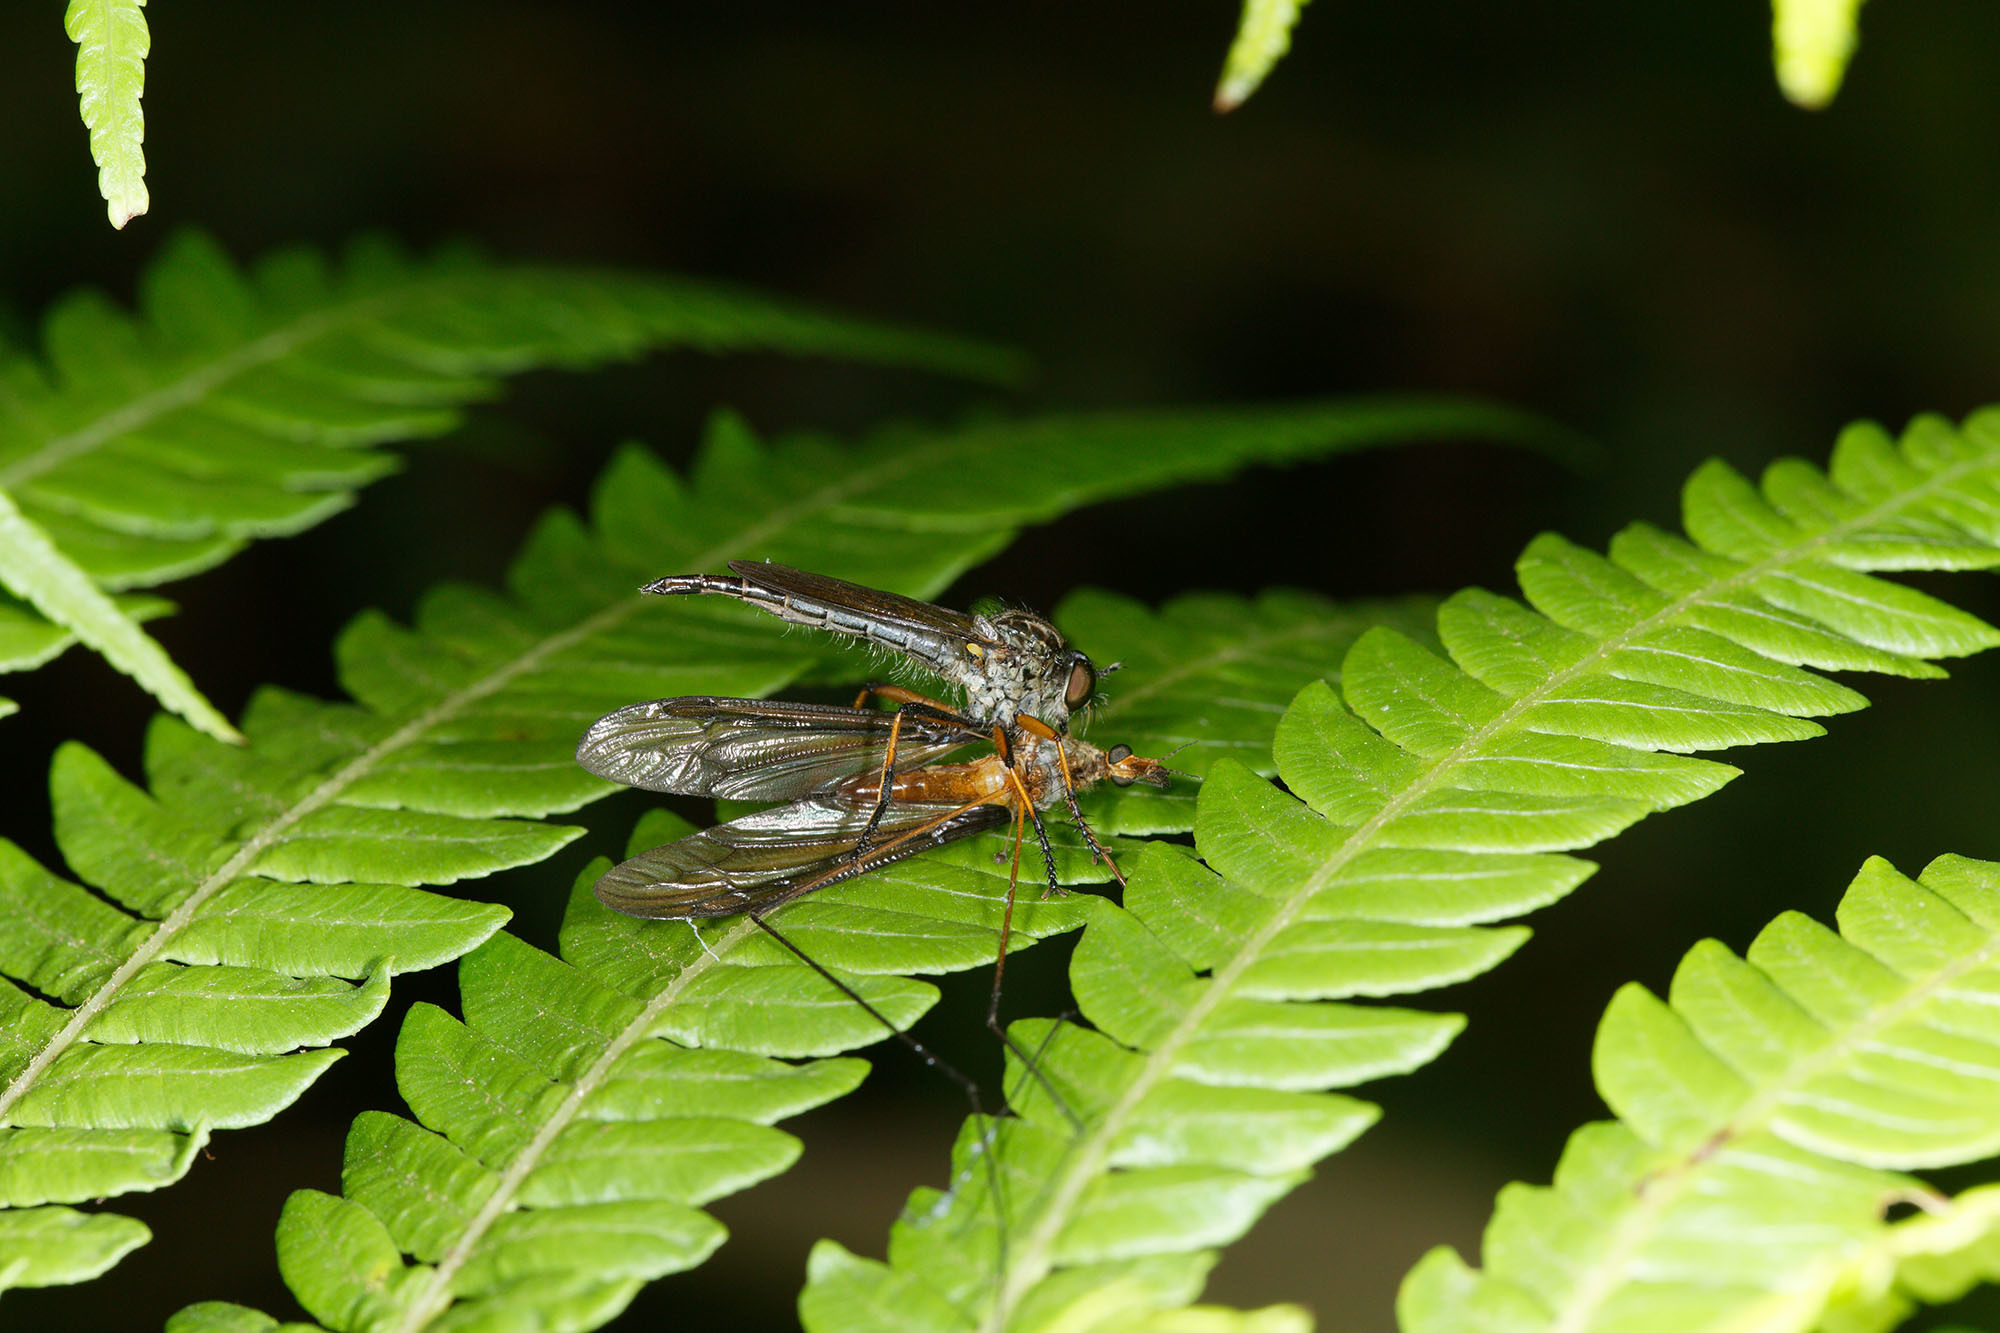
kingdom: Animalia
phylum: Arthropoda
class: Insecta
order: Diptera
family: Asilidae
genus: Cerdistus
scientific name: Cerdistus rusticanoides
